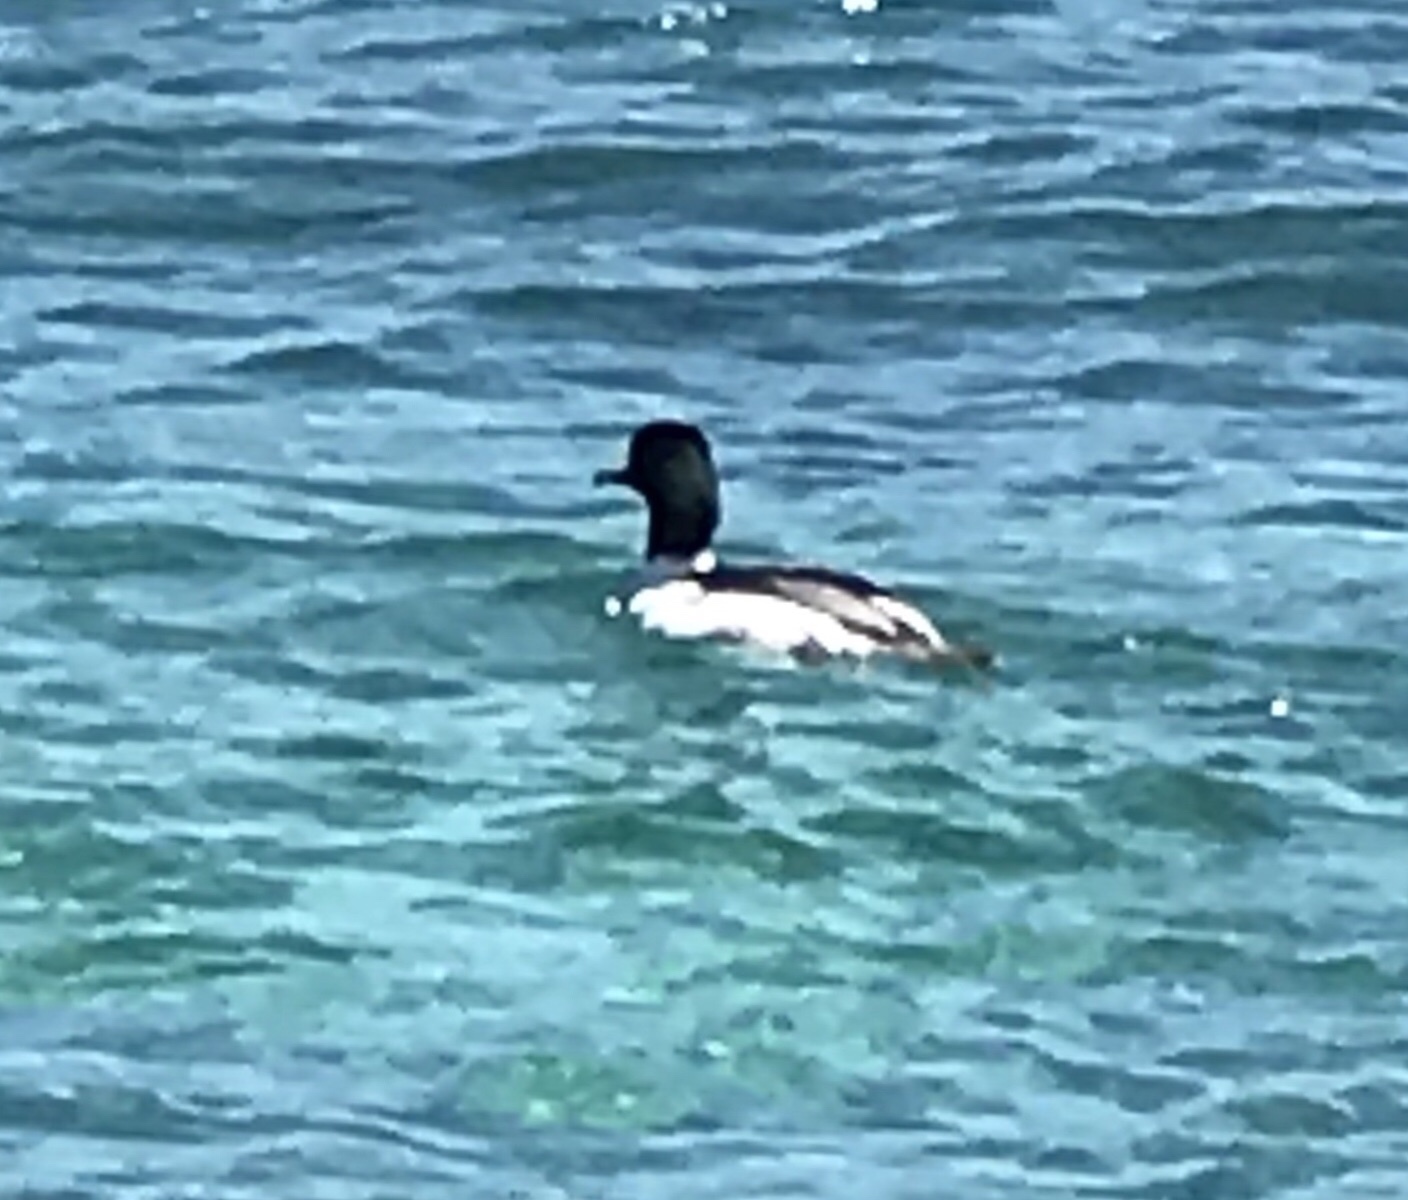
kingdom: Animalia
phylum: Chordata
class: Aves
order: Anseriformes
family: Anatidae
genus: Mergus
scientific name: Mergus merganser
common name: Common merganser
